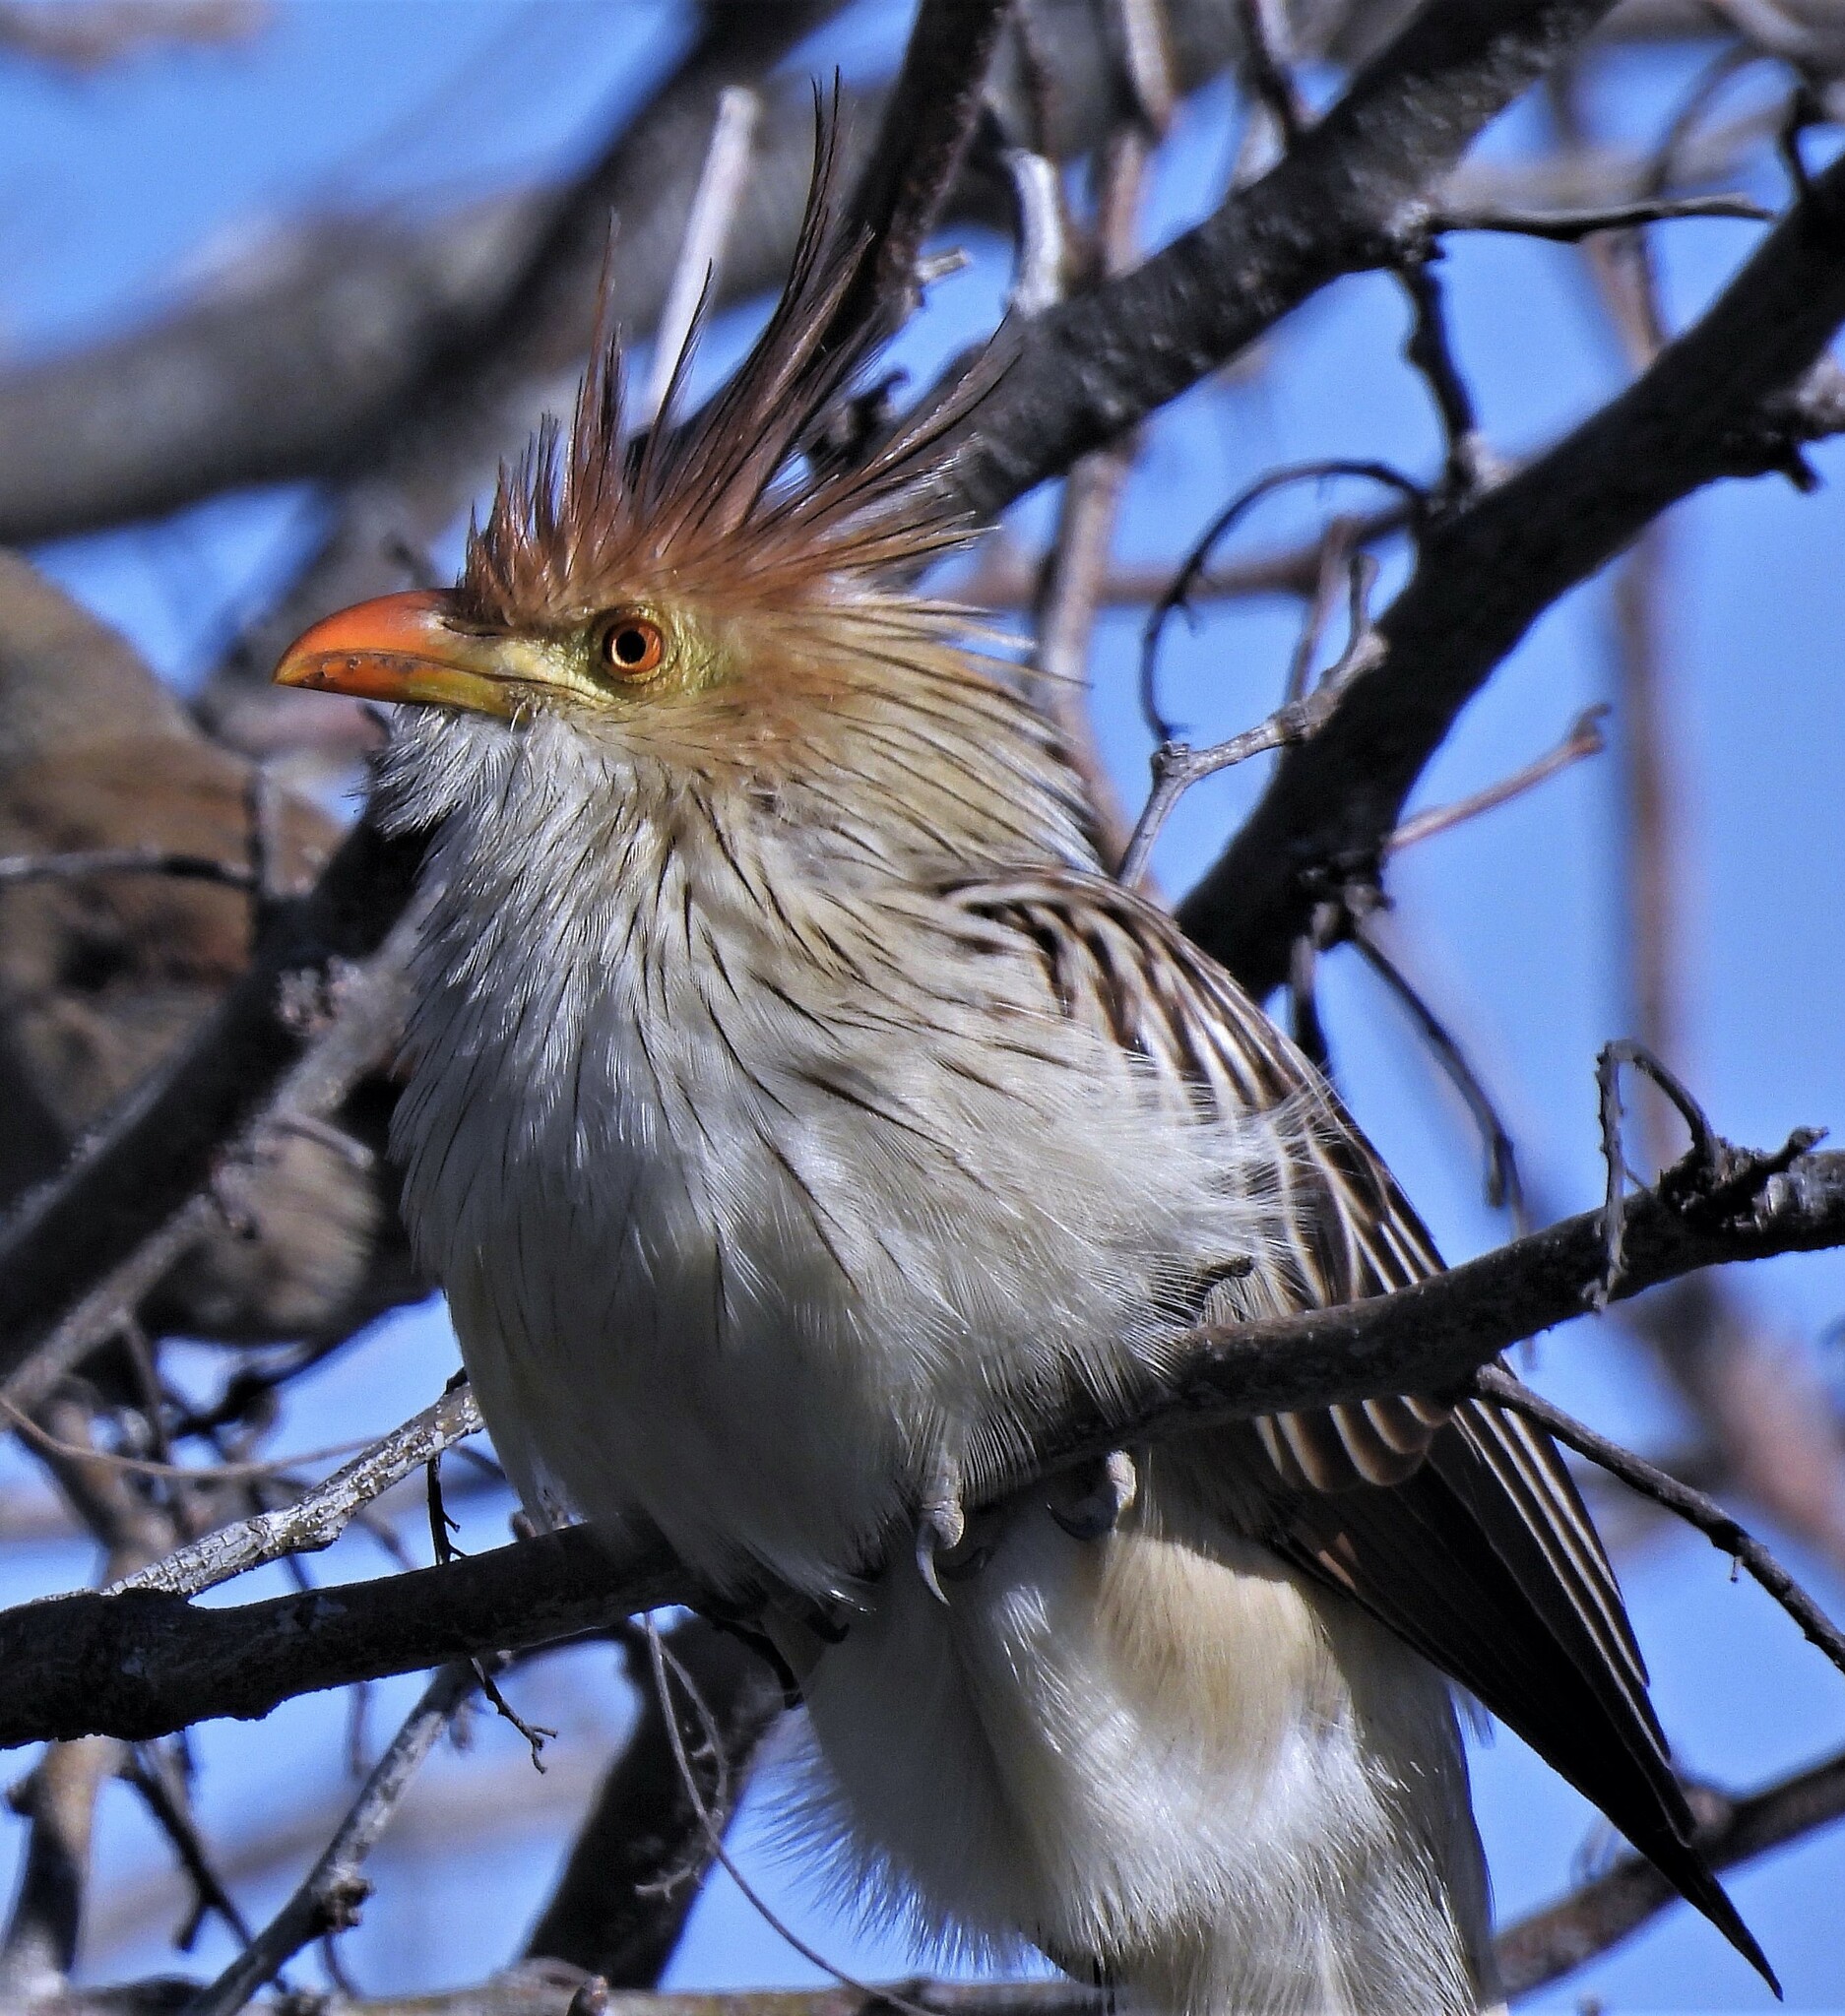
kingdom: Animalia
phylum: Chordata
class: Aves
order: Cuculiformes
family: Cuculidae
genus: Guira
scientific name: Guira guira
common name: Guira cuckoo
